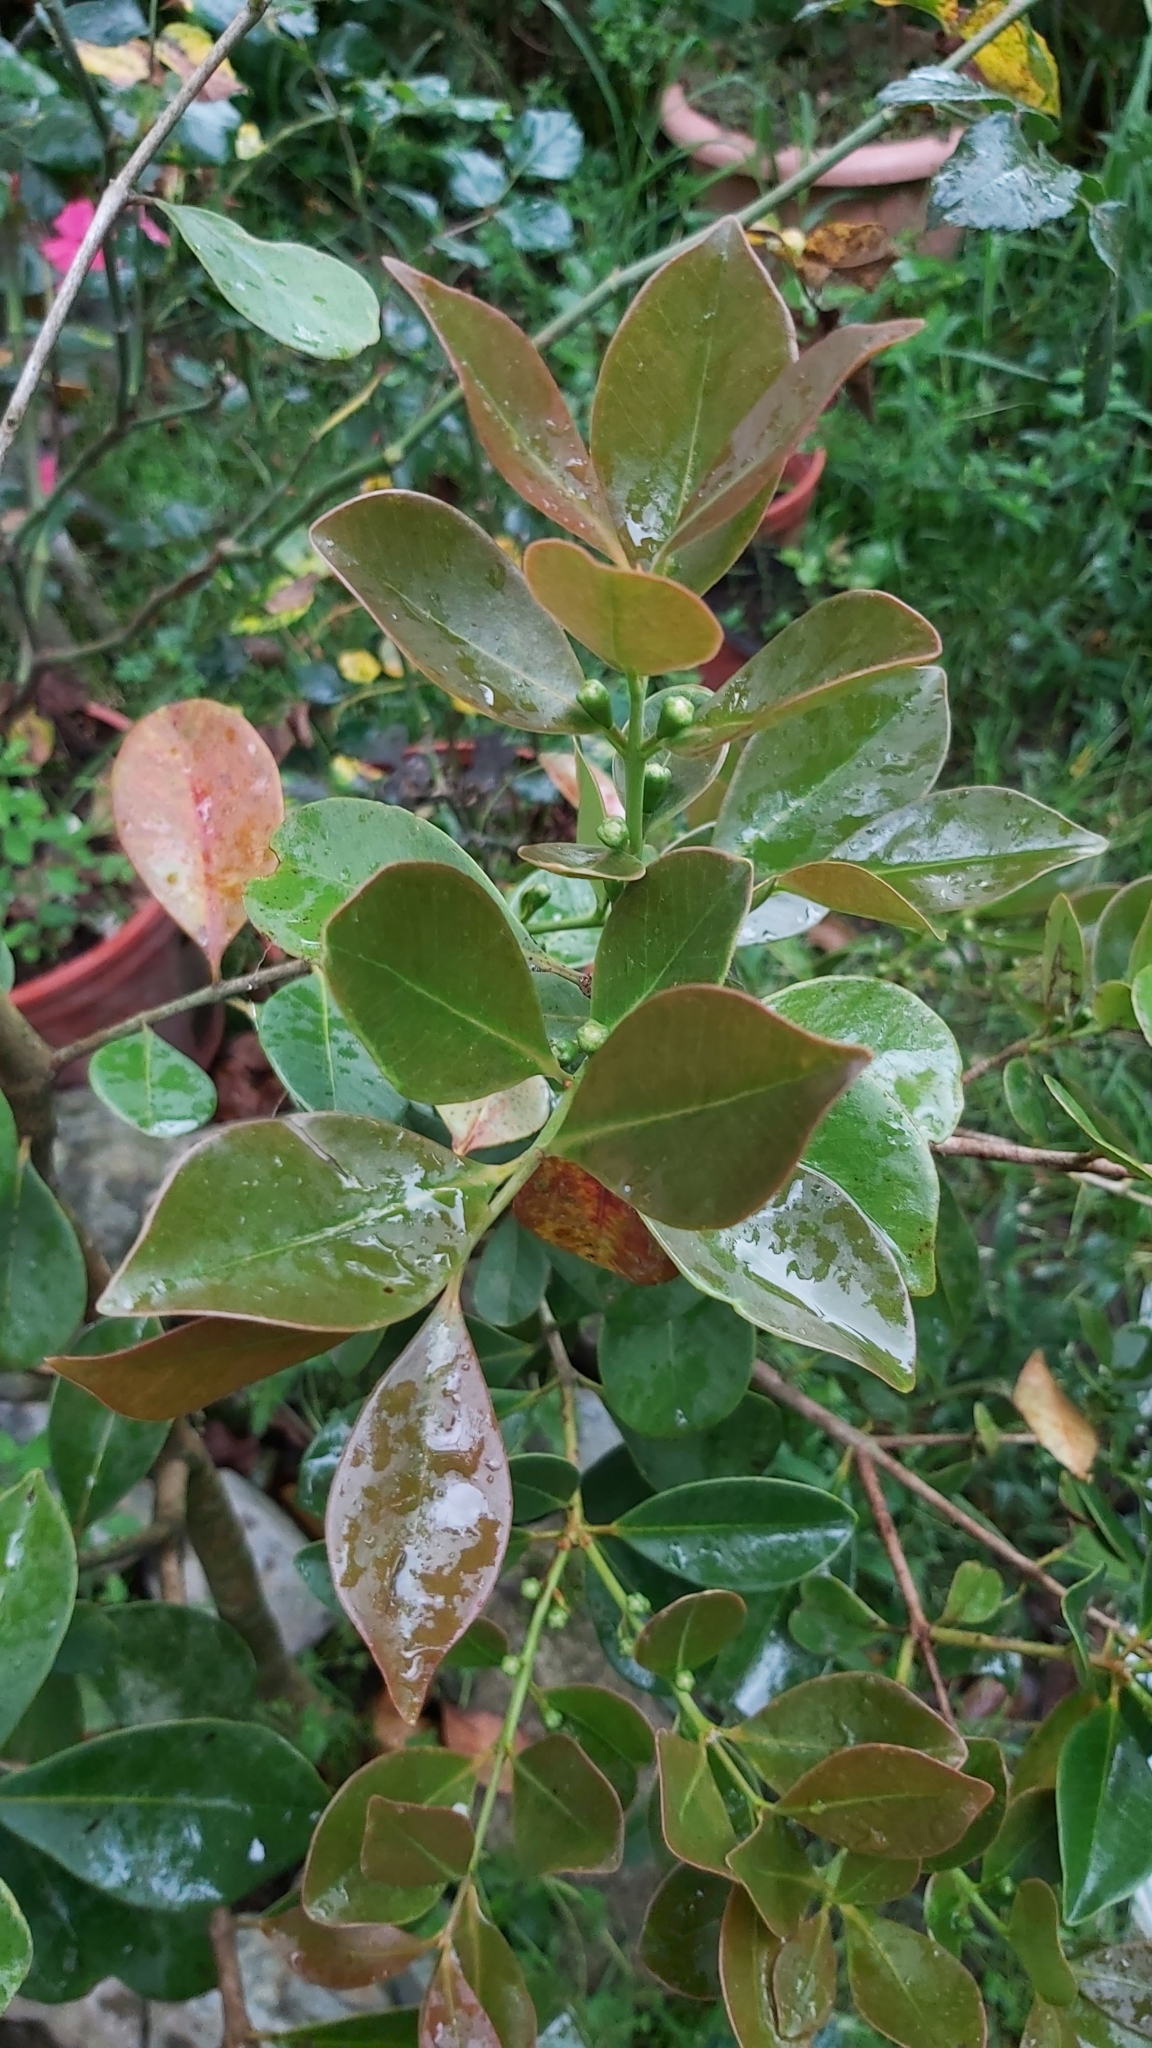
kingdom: Plantae
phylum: Tracheophyta
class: Magnoliopsida
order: Myrtales
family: Myrtaceae
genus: Psidium
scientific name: Psidium cattleianum
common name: Strawberry guava
